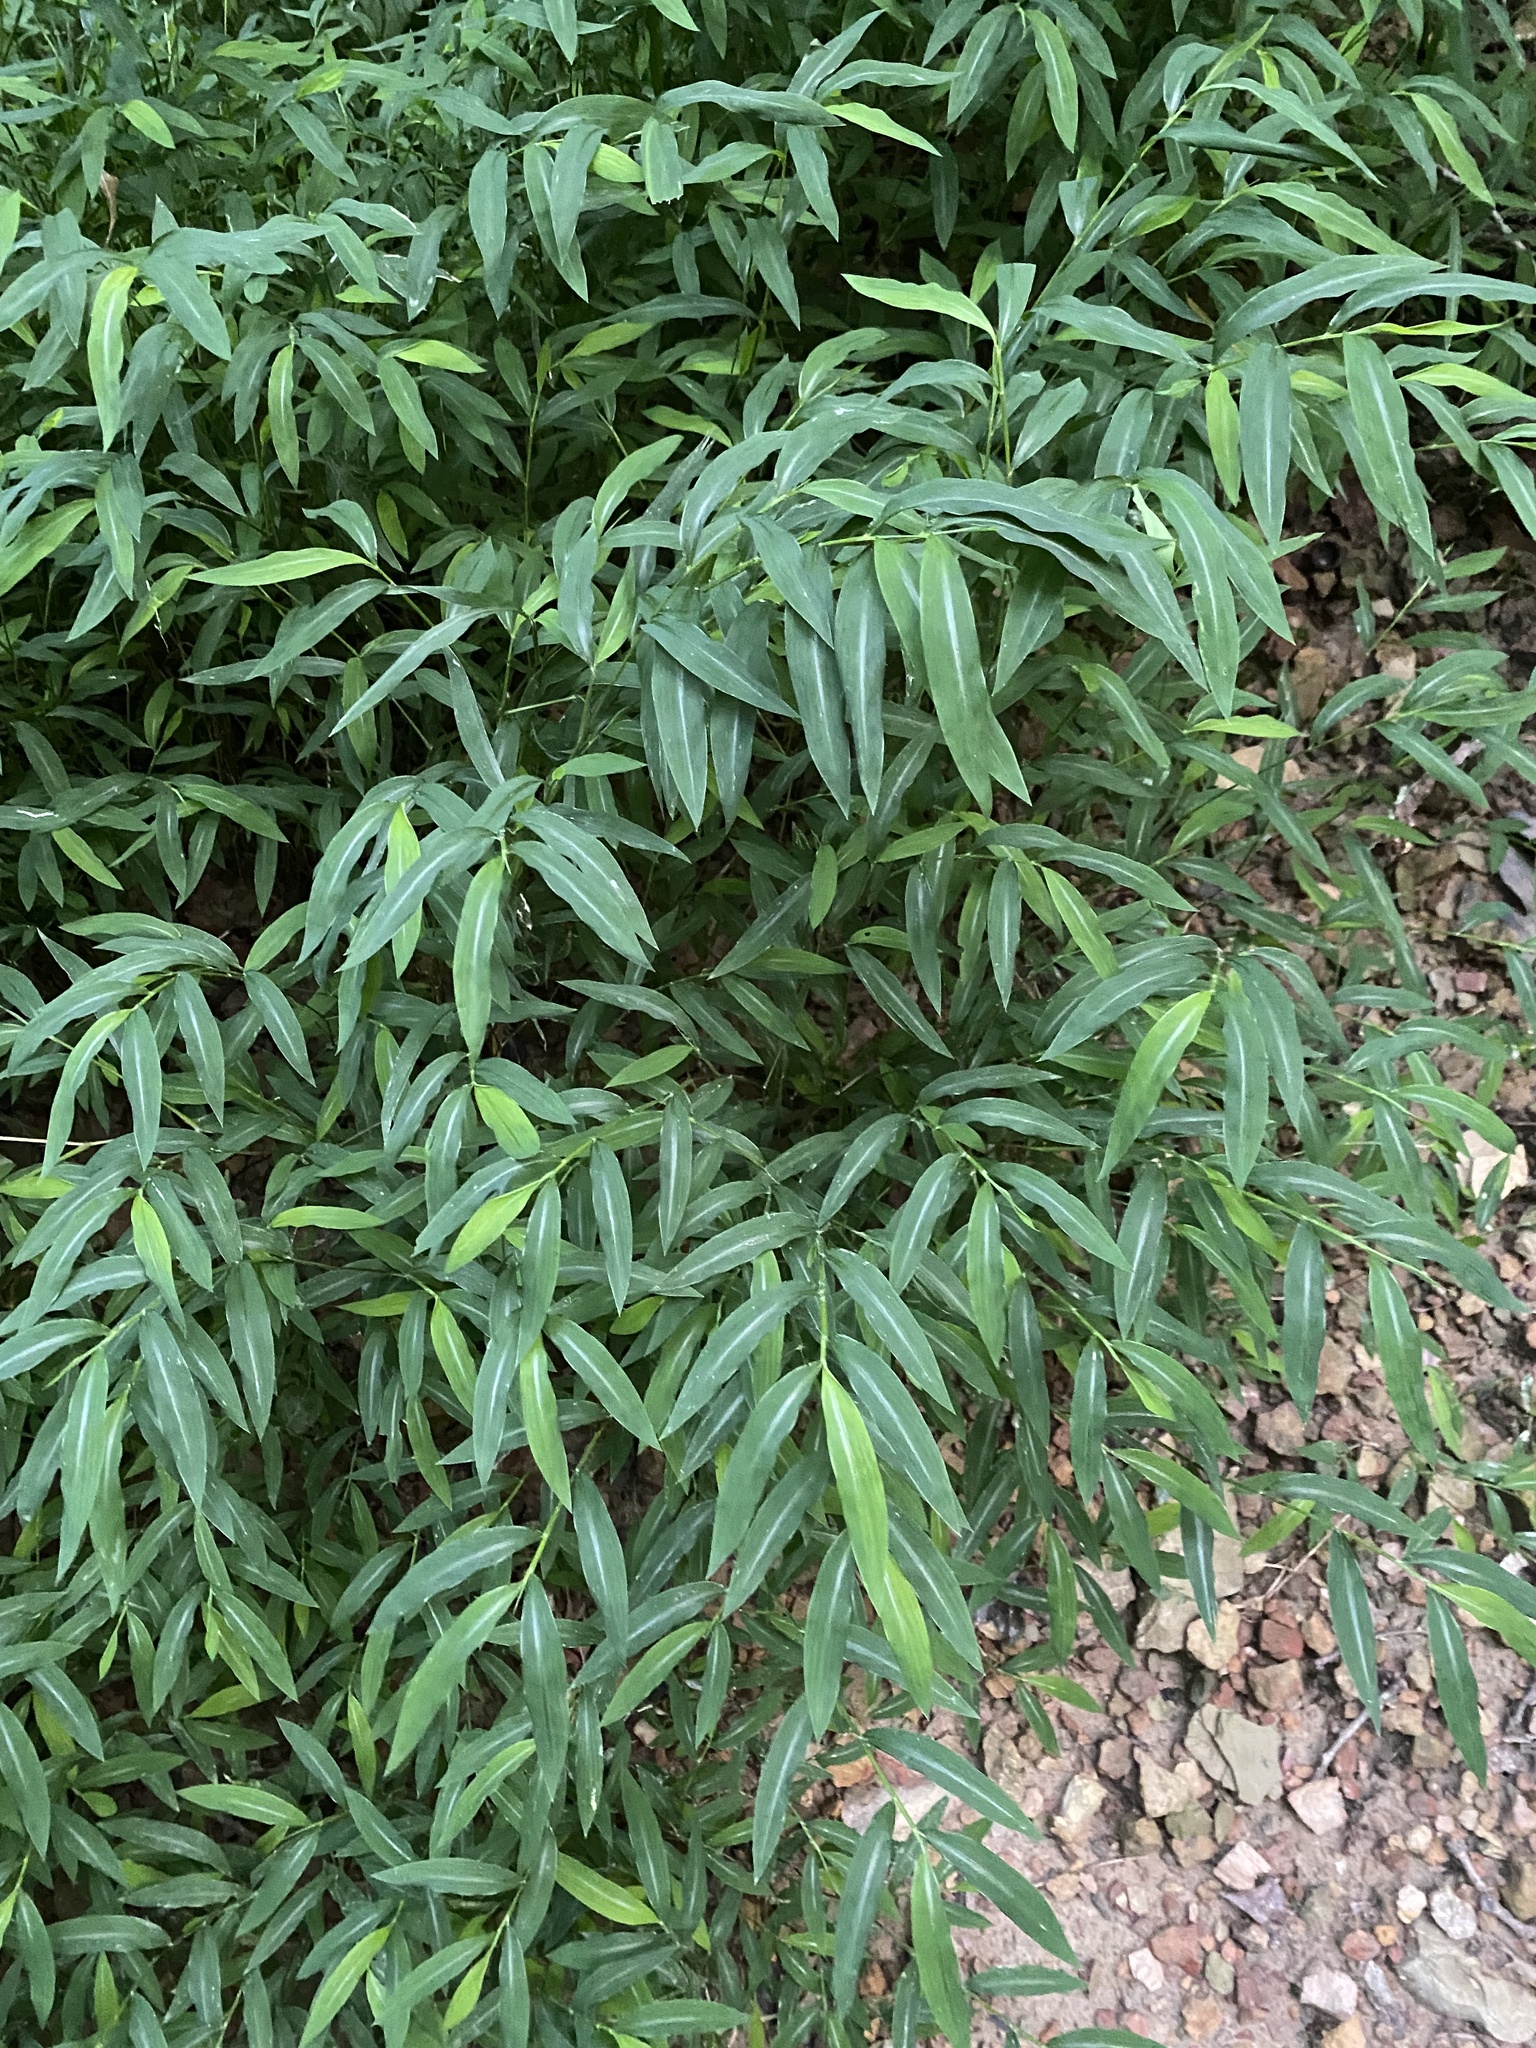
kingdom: Plantae
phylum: Tracheophyta
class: Liliopsida
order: Poales
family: Poaceae
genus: Microstegium
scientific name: Microstegium vimineum
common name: Japanese stiltgrass
